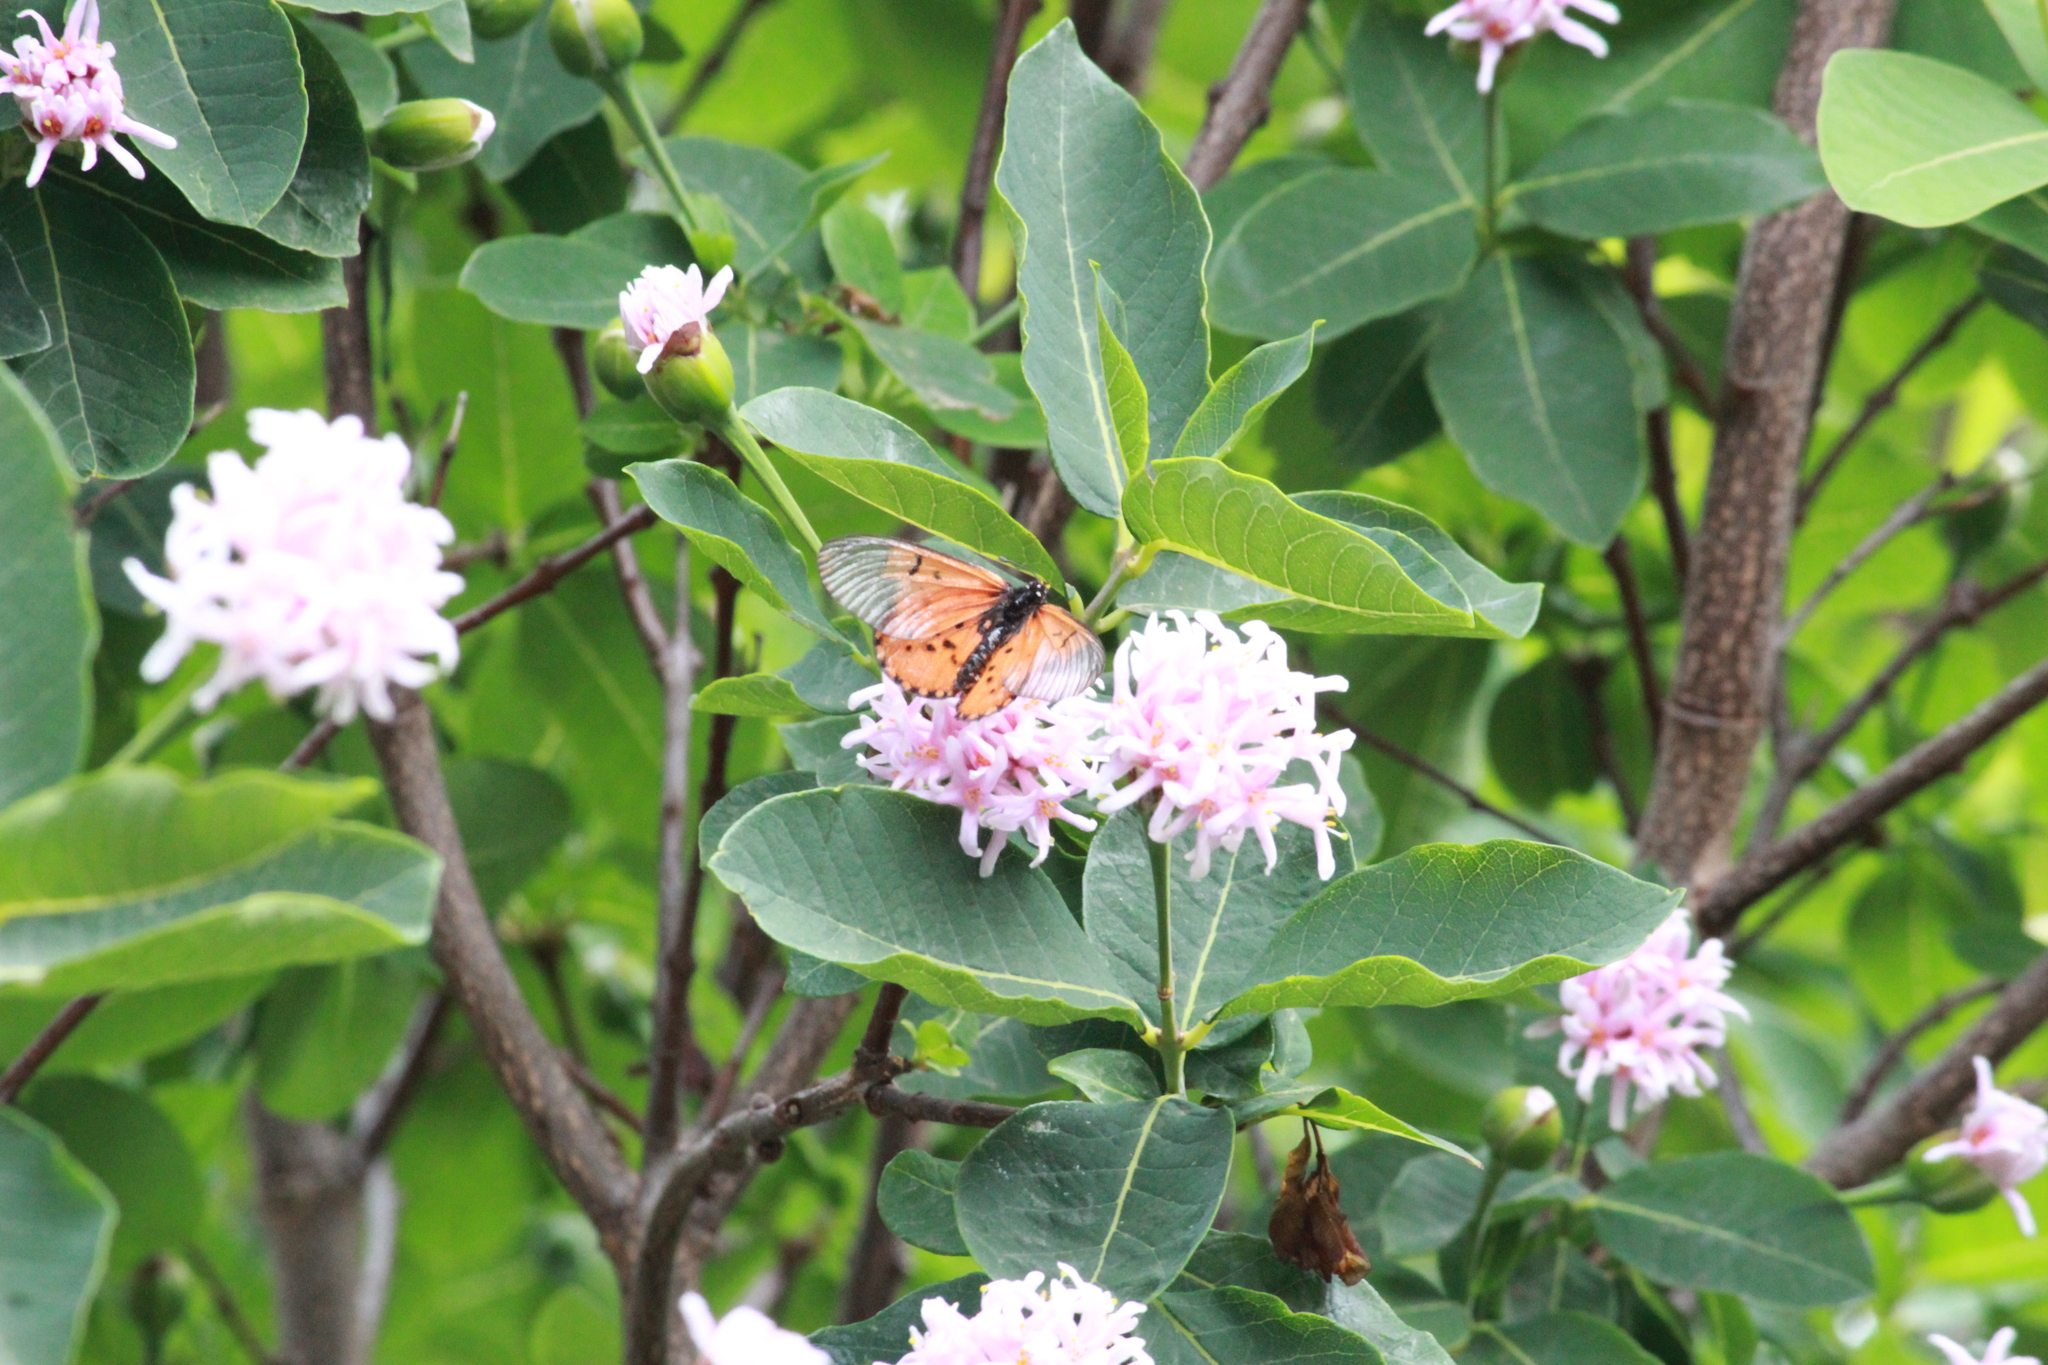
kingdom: Animalia
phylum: Arthropoda
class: Insecta
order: Lepidoptera
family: Nymphalidae
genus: Acraea
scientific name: Acraea horta
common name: Garden acraea
